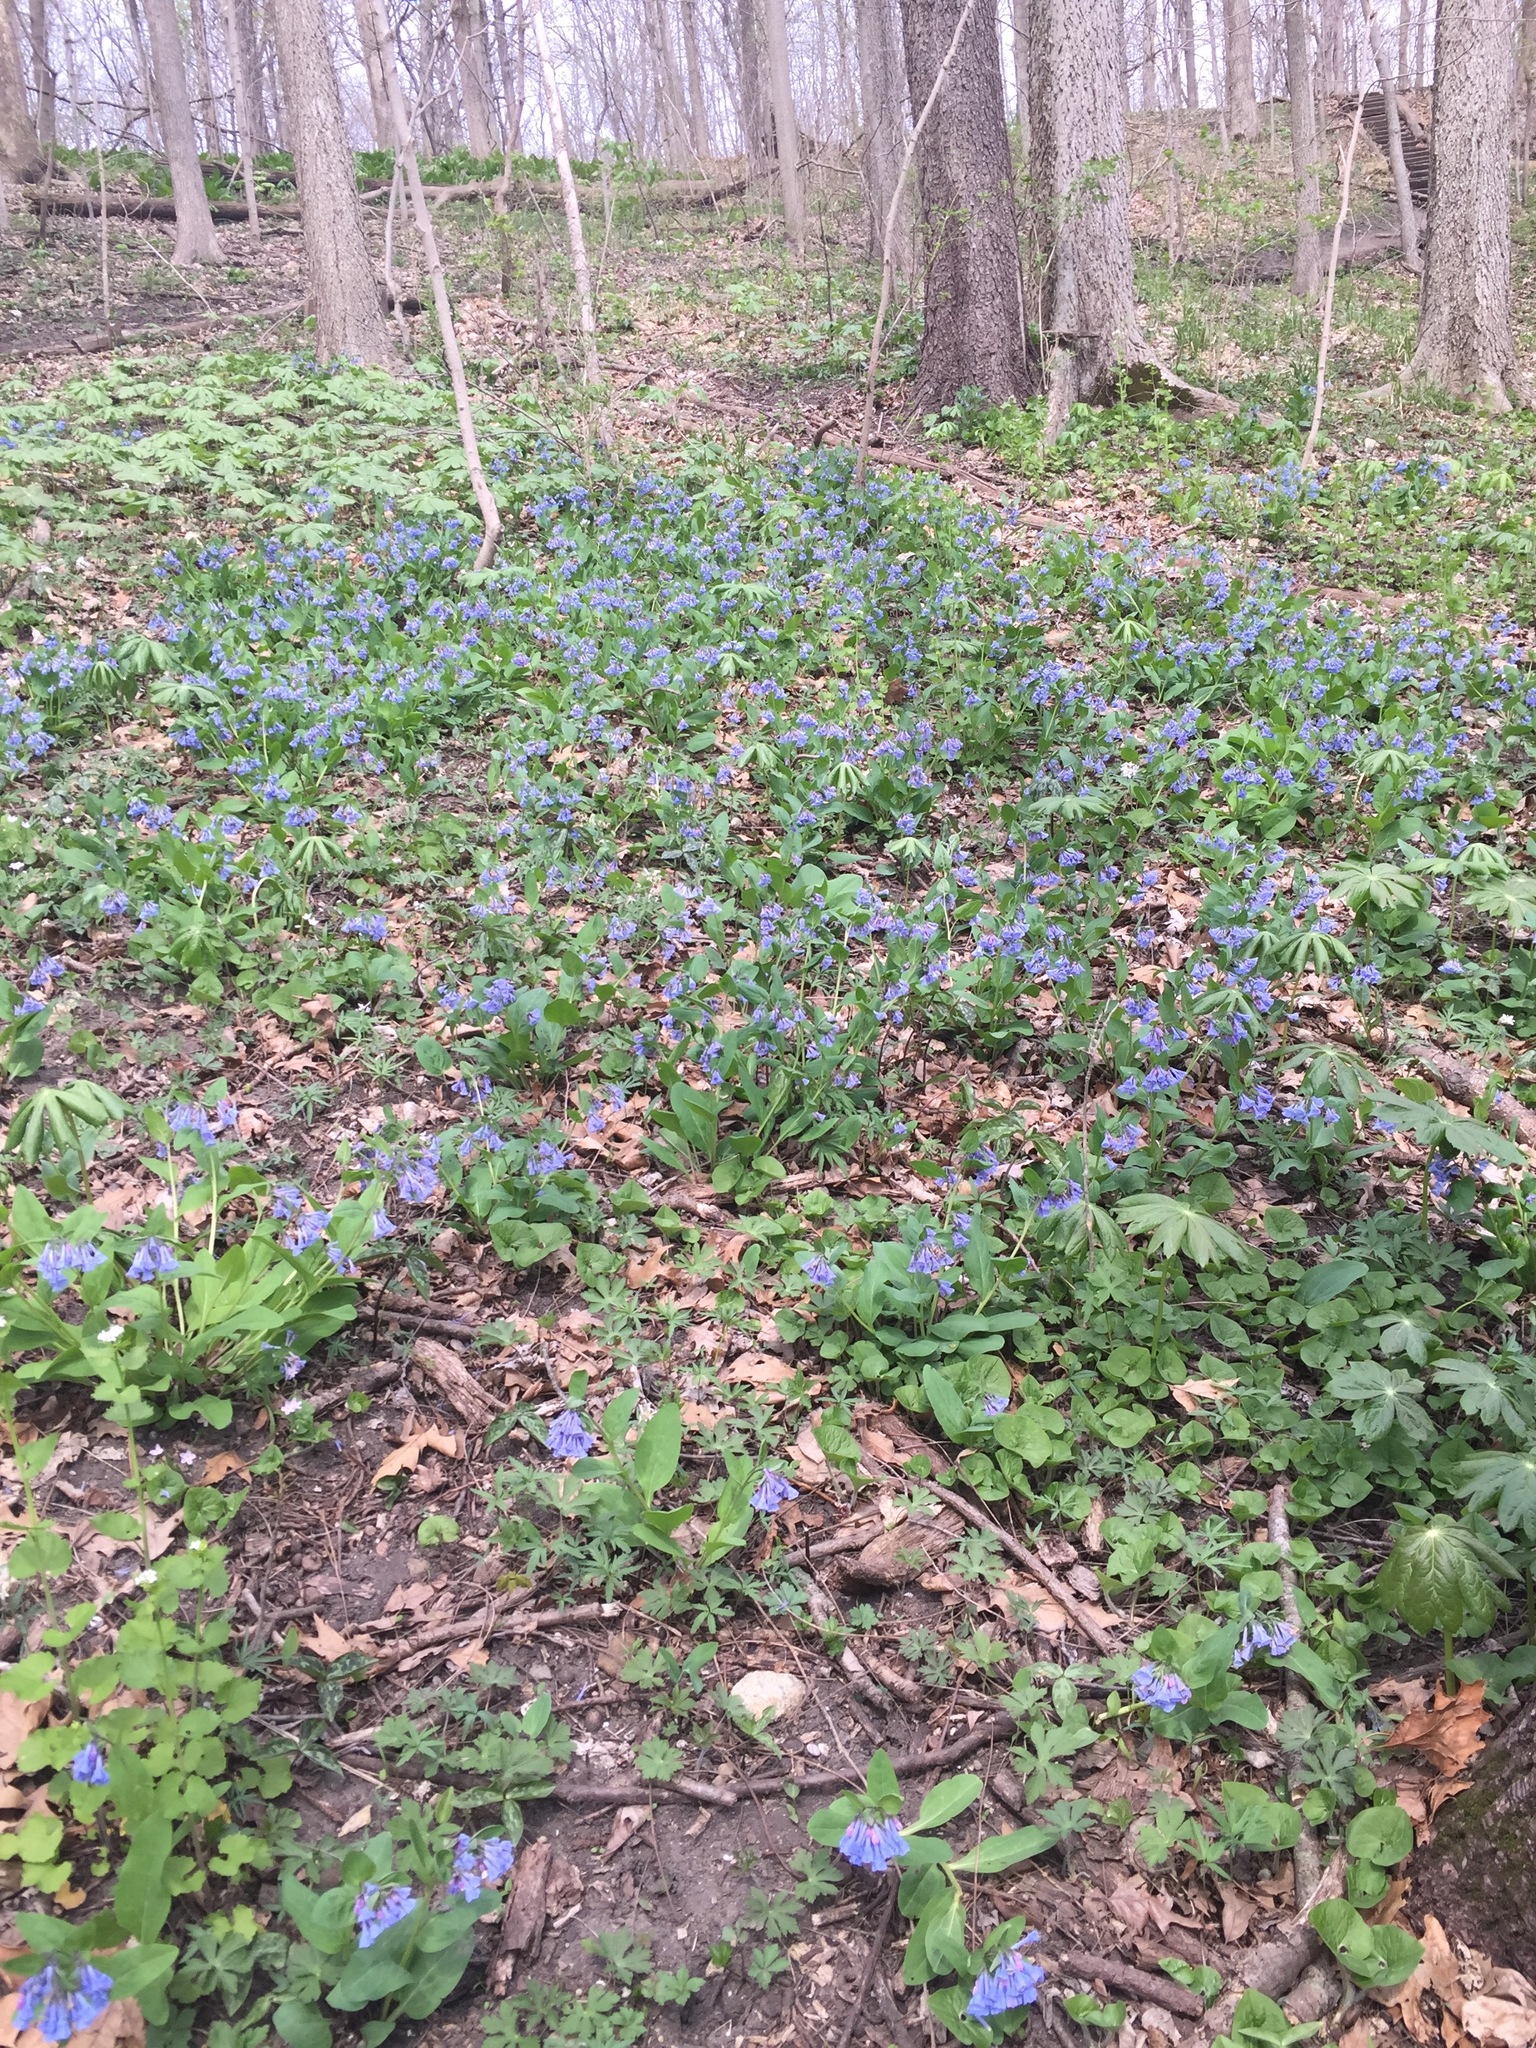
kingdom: Plantae
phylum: Tracheophyta
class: Magnoliopsida
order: Boraginales
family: Boraginaceae
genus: Mertensia
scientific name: Mertensia virginica
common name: Virginia bluebells
